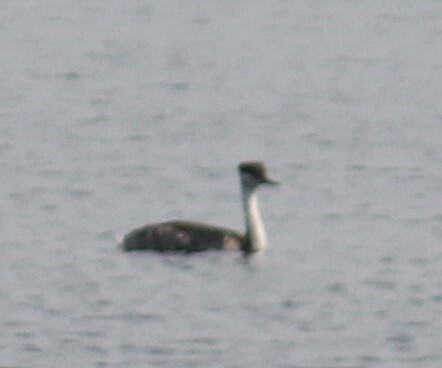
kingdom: Animalia
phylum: Chordata
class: Aves
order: Podicipediformes
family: Podicipedidae
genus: Aechmophorus
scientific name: Aechmophorus occidentalis
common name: Western grebe
